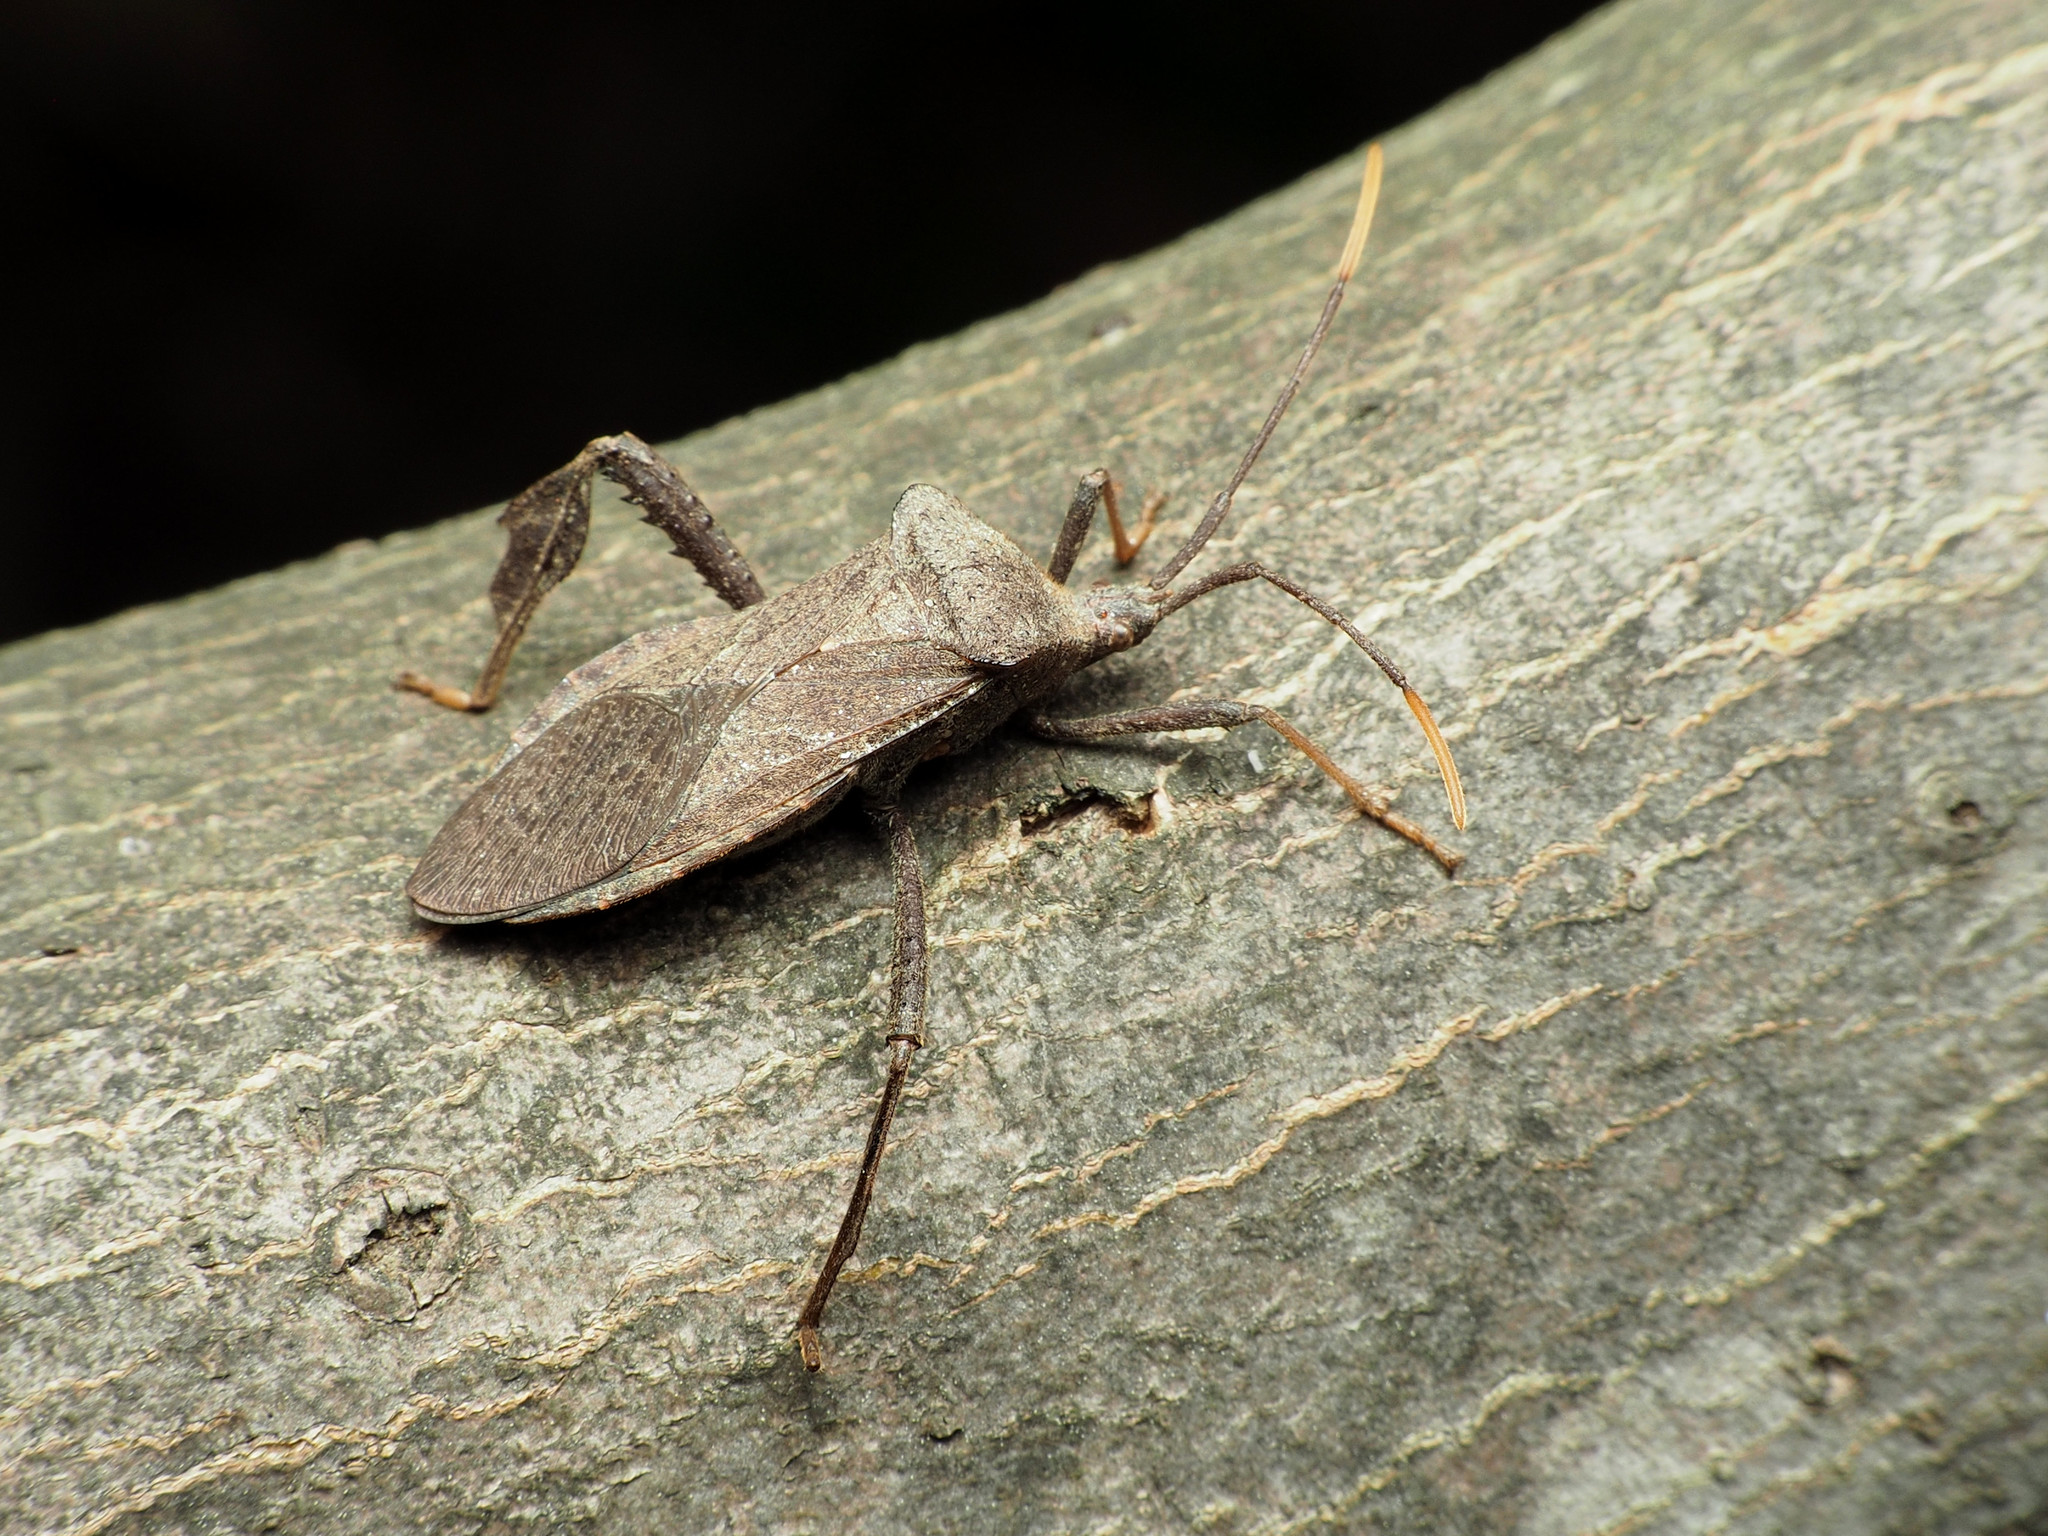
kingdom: Animalia
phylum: Arthropoda
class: Insecta
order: Hemiptera
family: Coreidae
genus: Acanthocephala
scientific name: Acanthocephala terminalis
